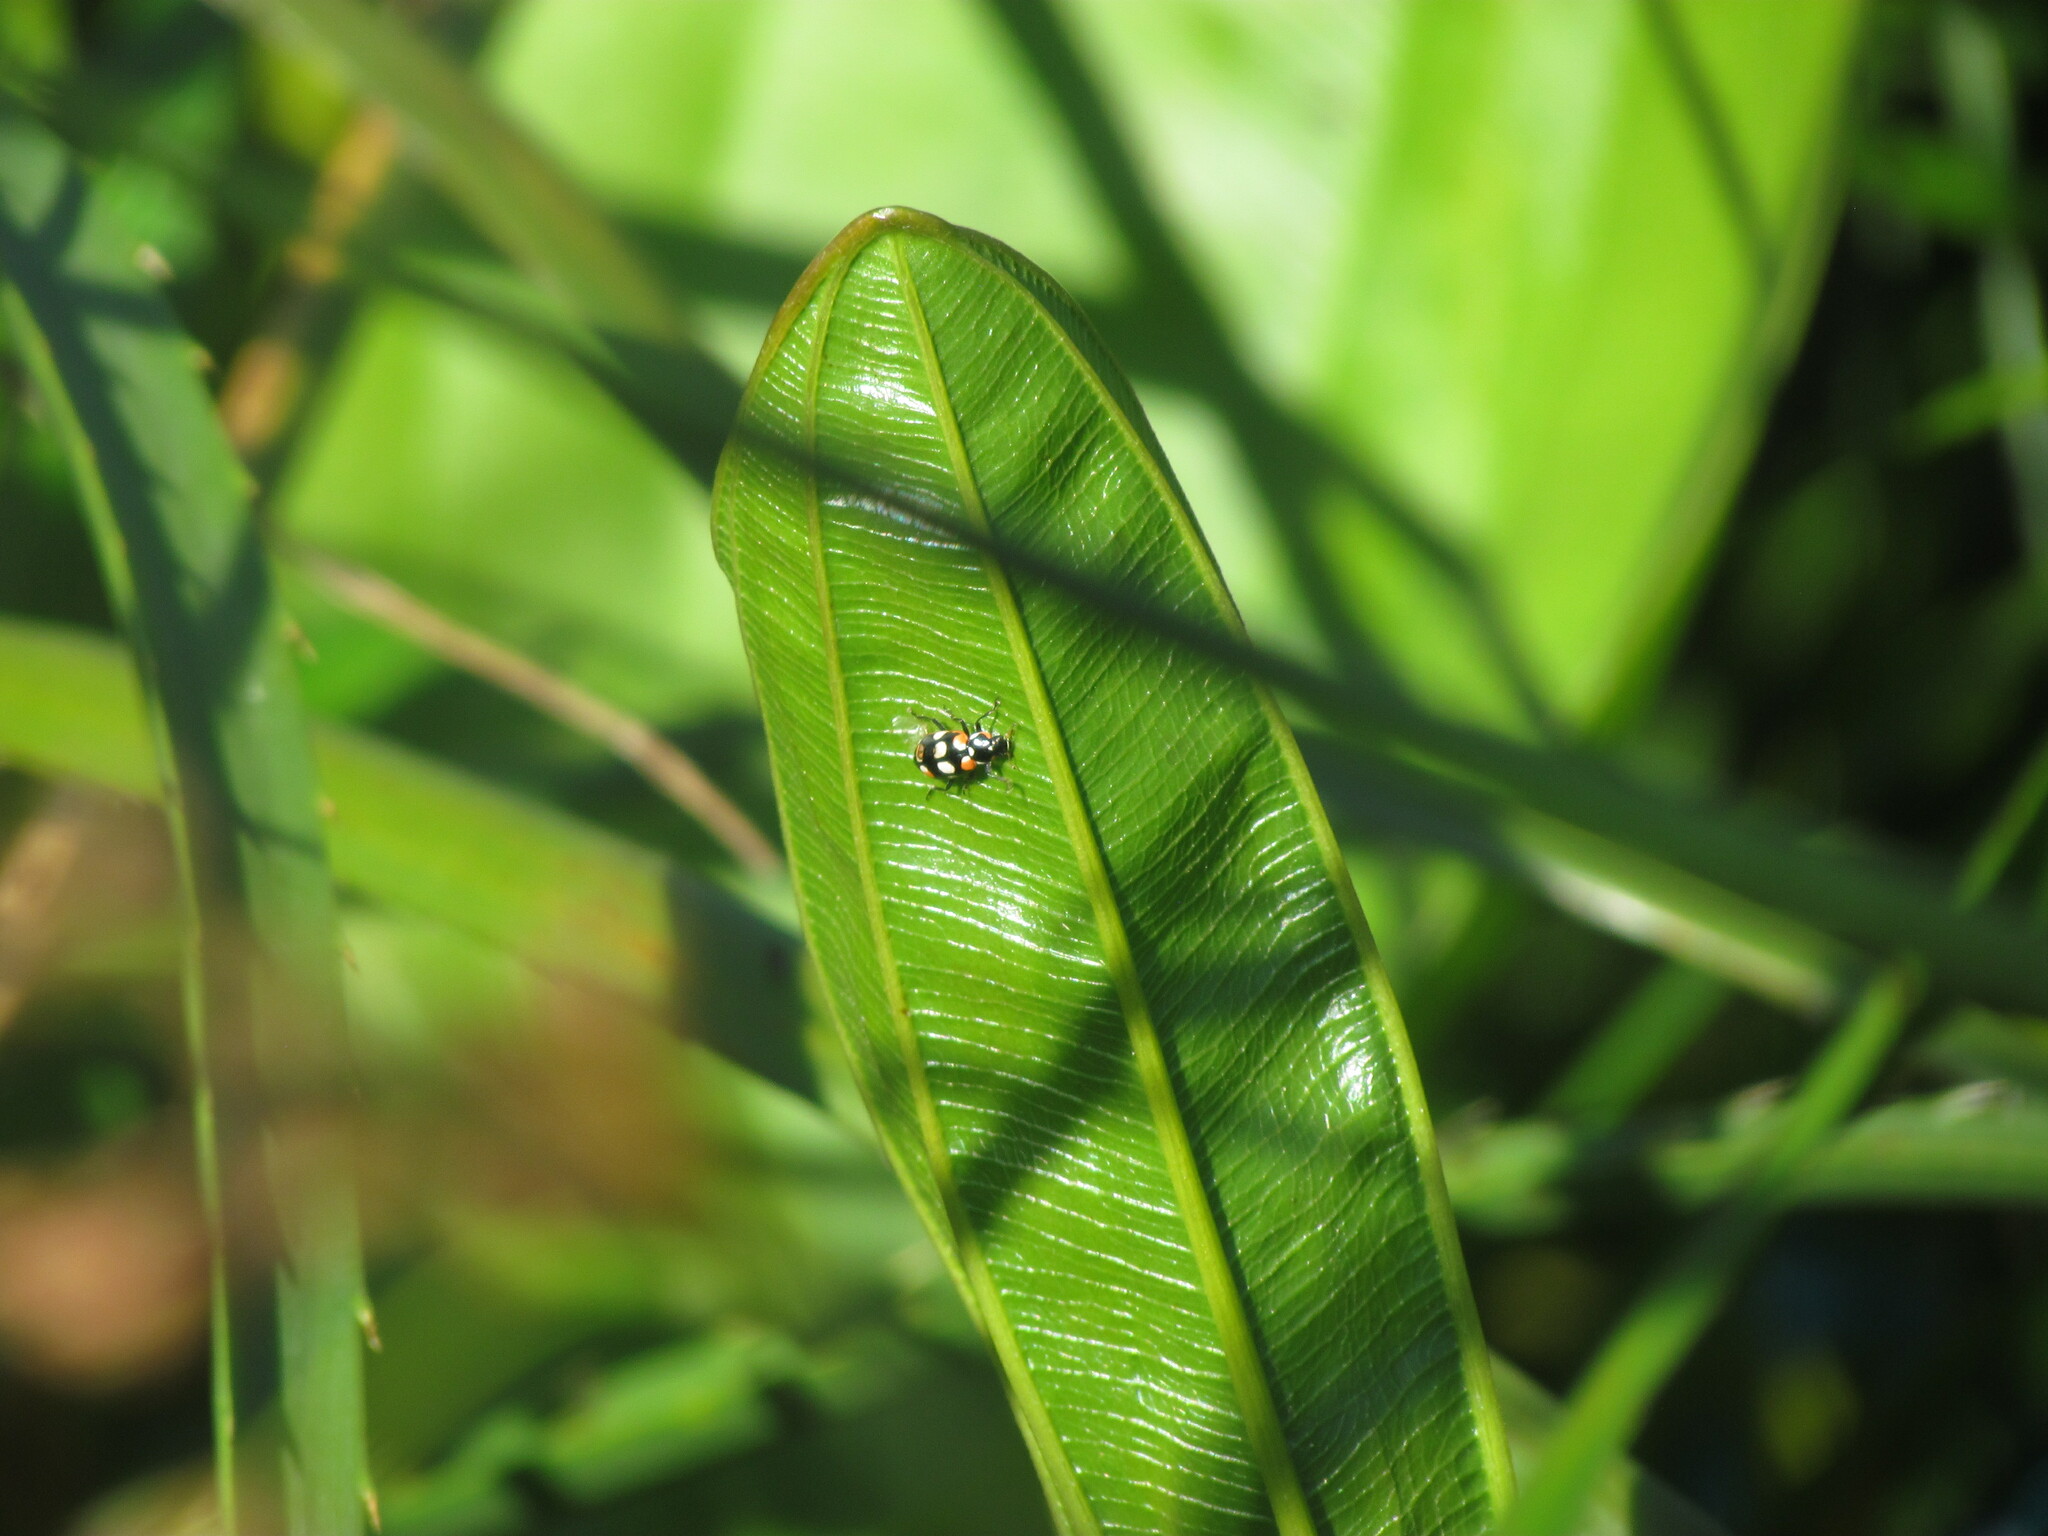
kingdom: Animalia
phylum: Arthropoda
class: Insecta
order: Coleoptera
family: Coccinellidae
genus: Eriopis
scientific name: Eriopis connexa
